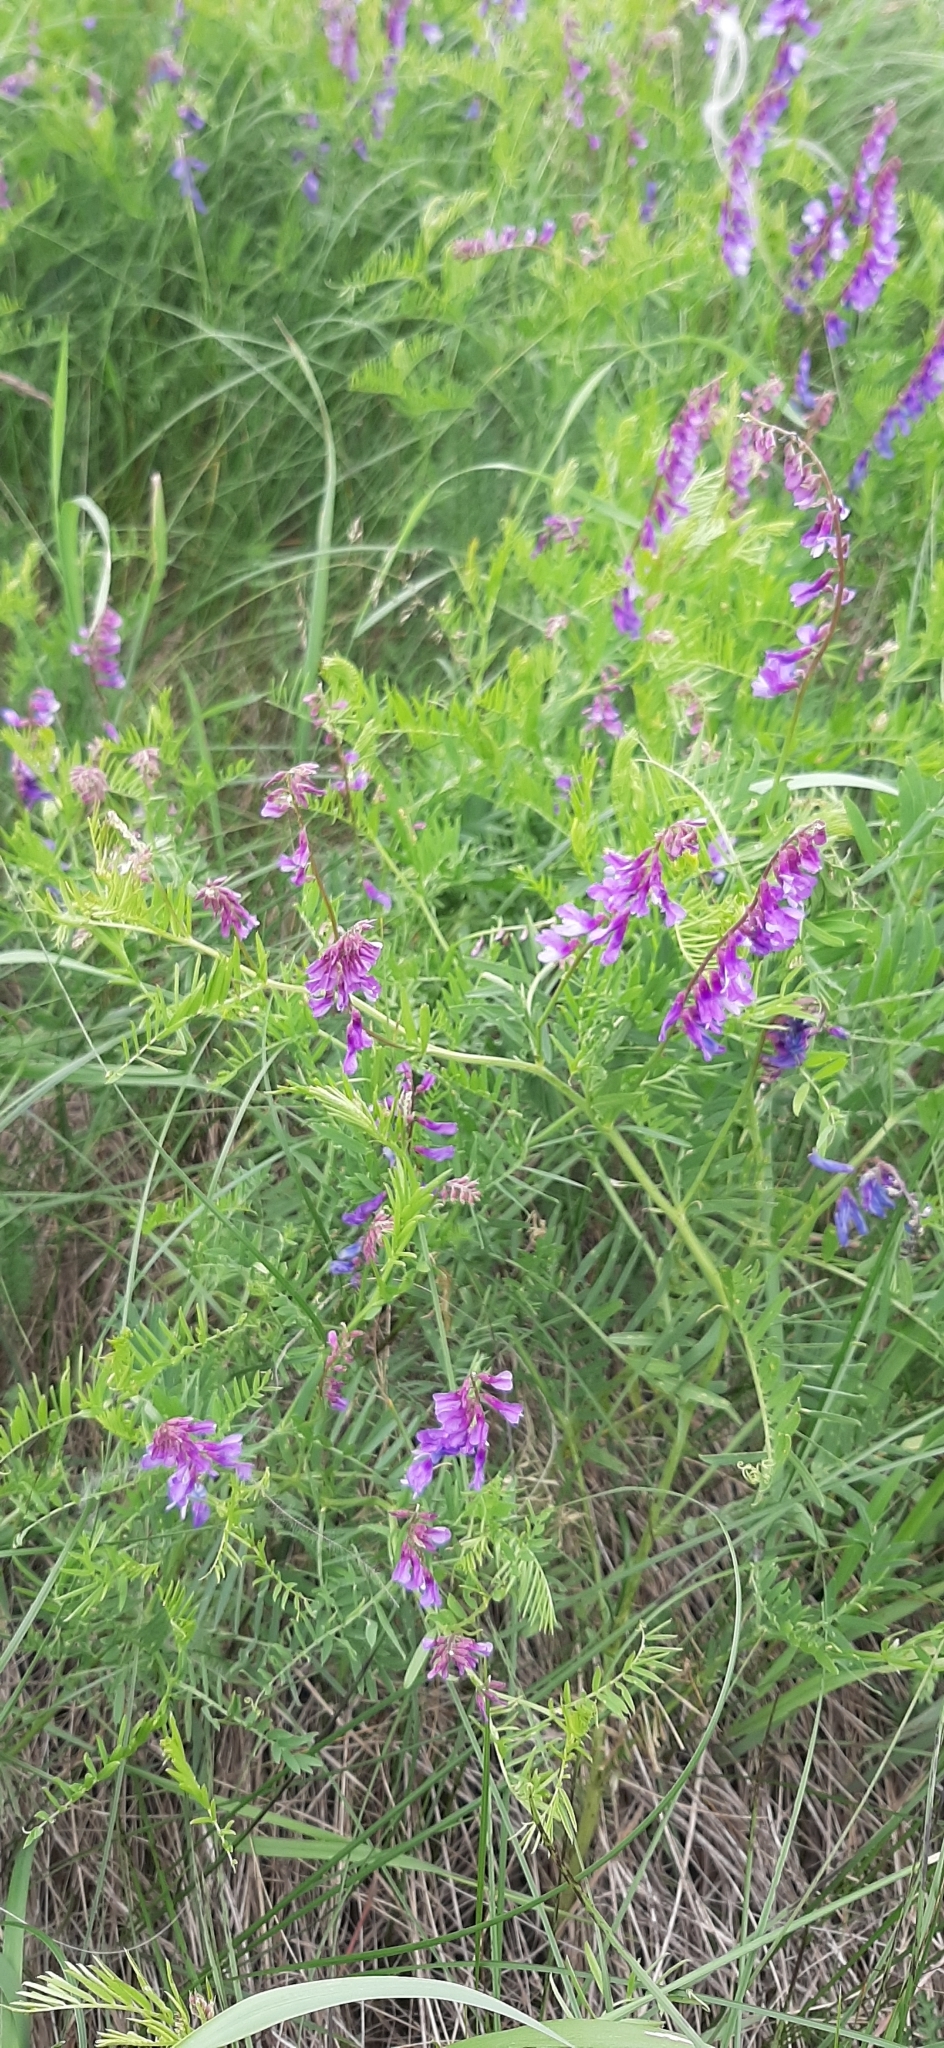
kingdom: Plantae
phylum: Tracheophyta
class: Magnoliopsida
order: Fabales
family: Fabaceae
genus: Vicia
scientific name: Vicia tenuifolia
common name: Fine-leaved vetch
